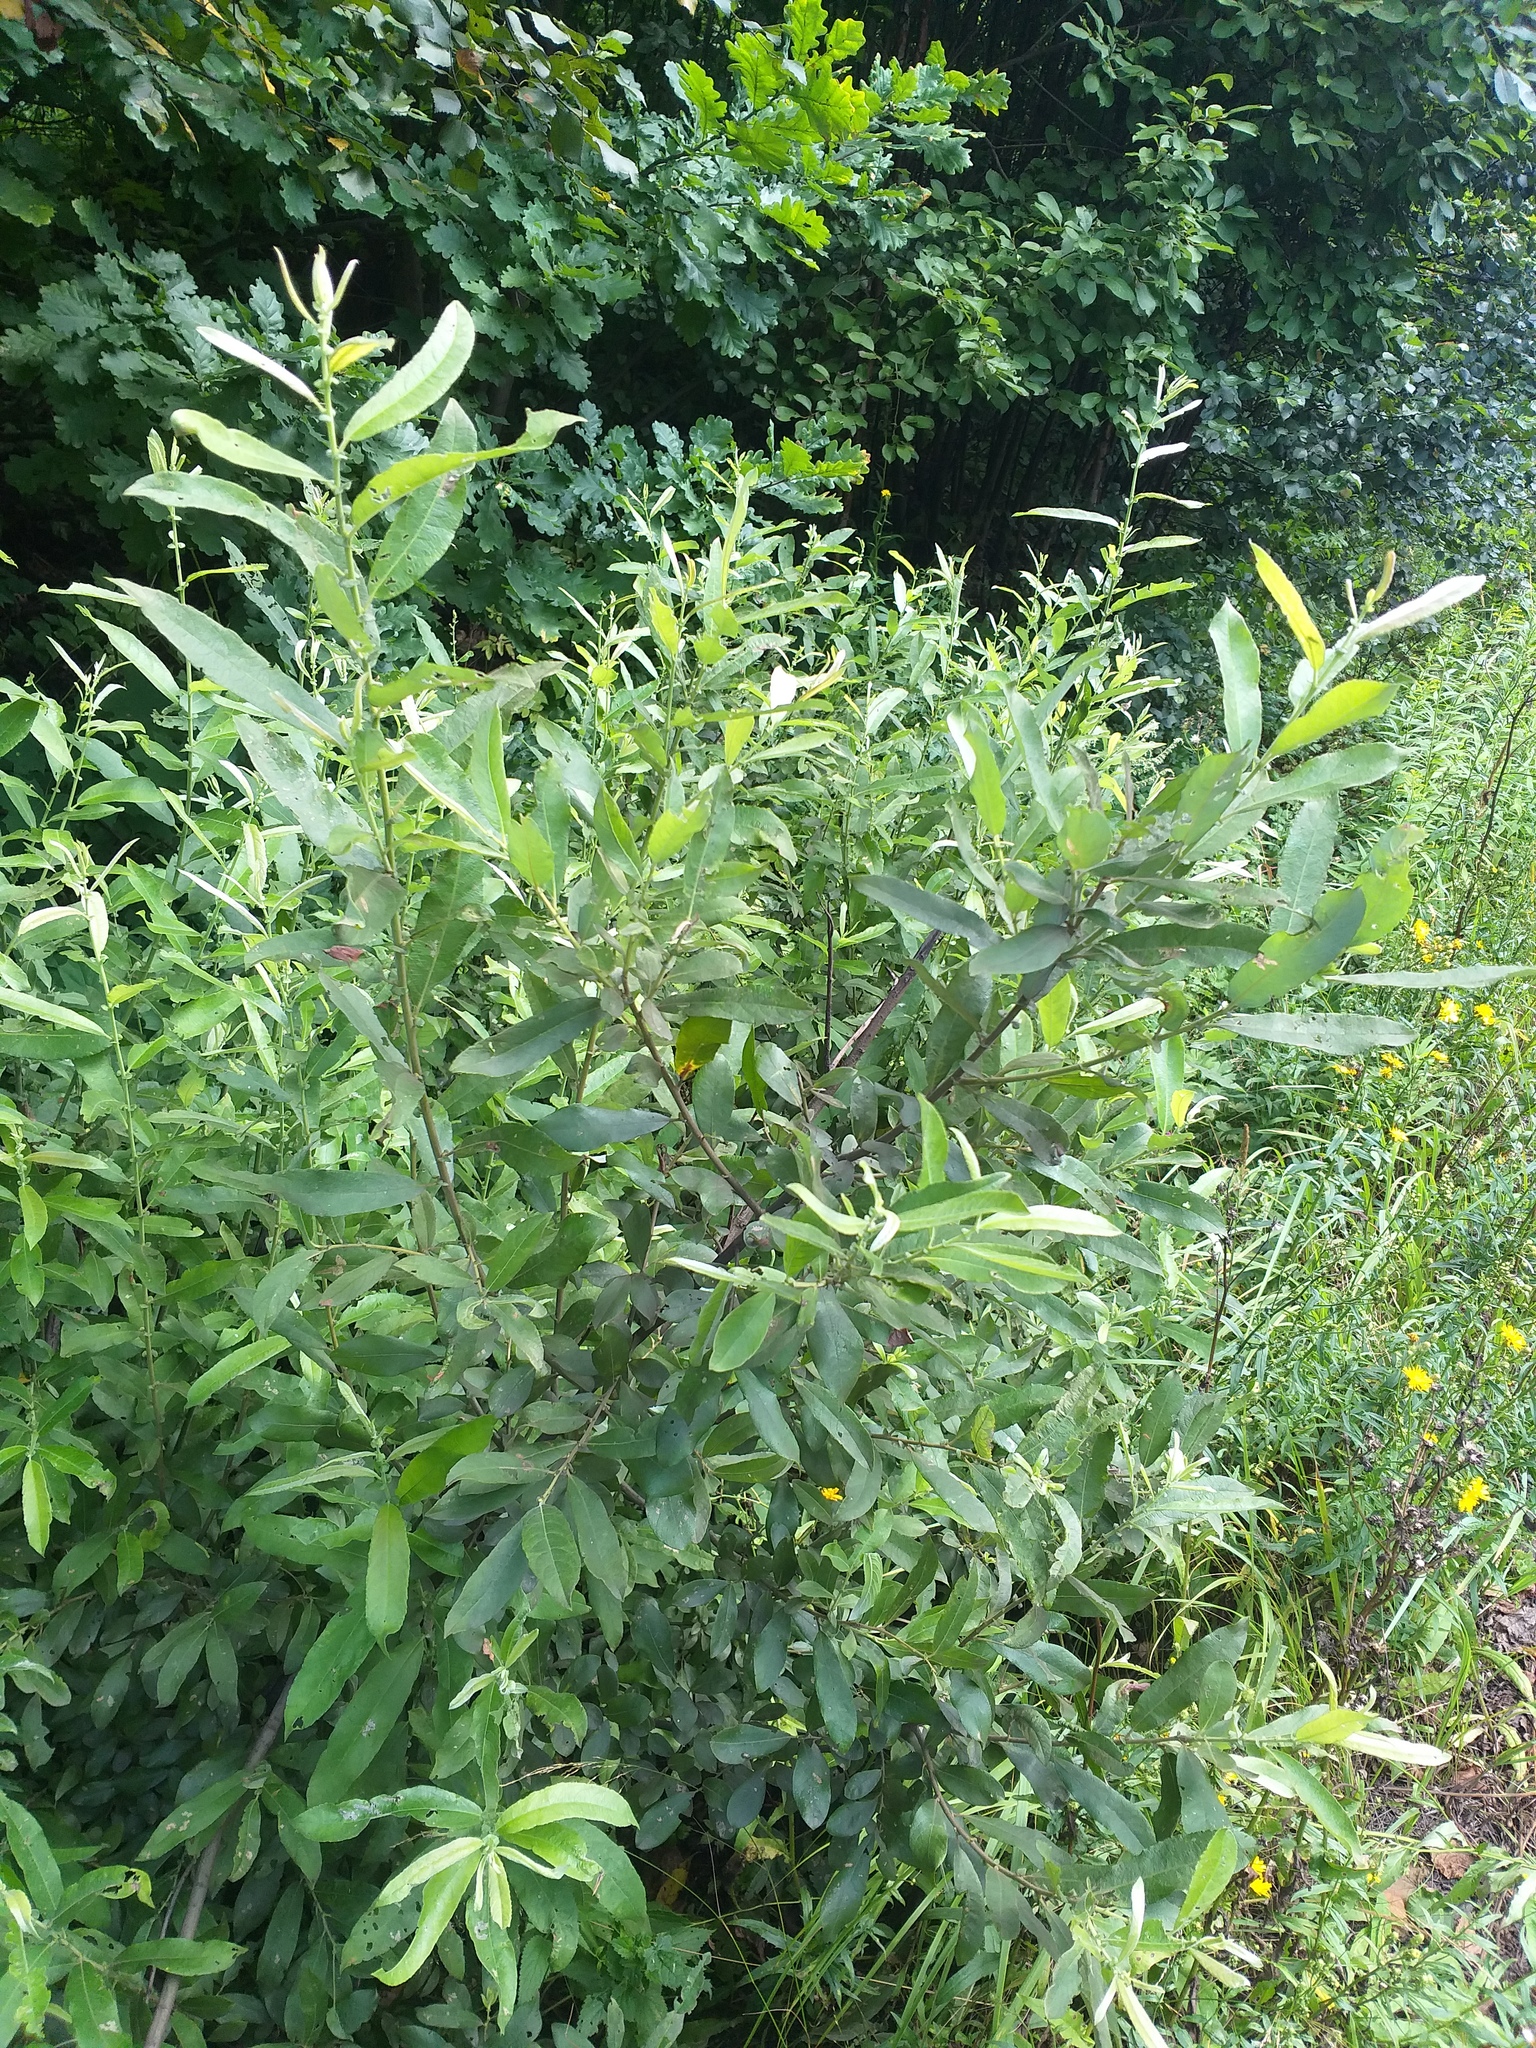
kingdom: Plantae
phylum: Tracheophyta
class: Magnoliopsida
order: Malpighiales
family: Salicaceae
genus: Salix
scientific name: Salix cinerea
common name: Common sallow
